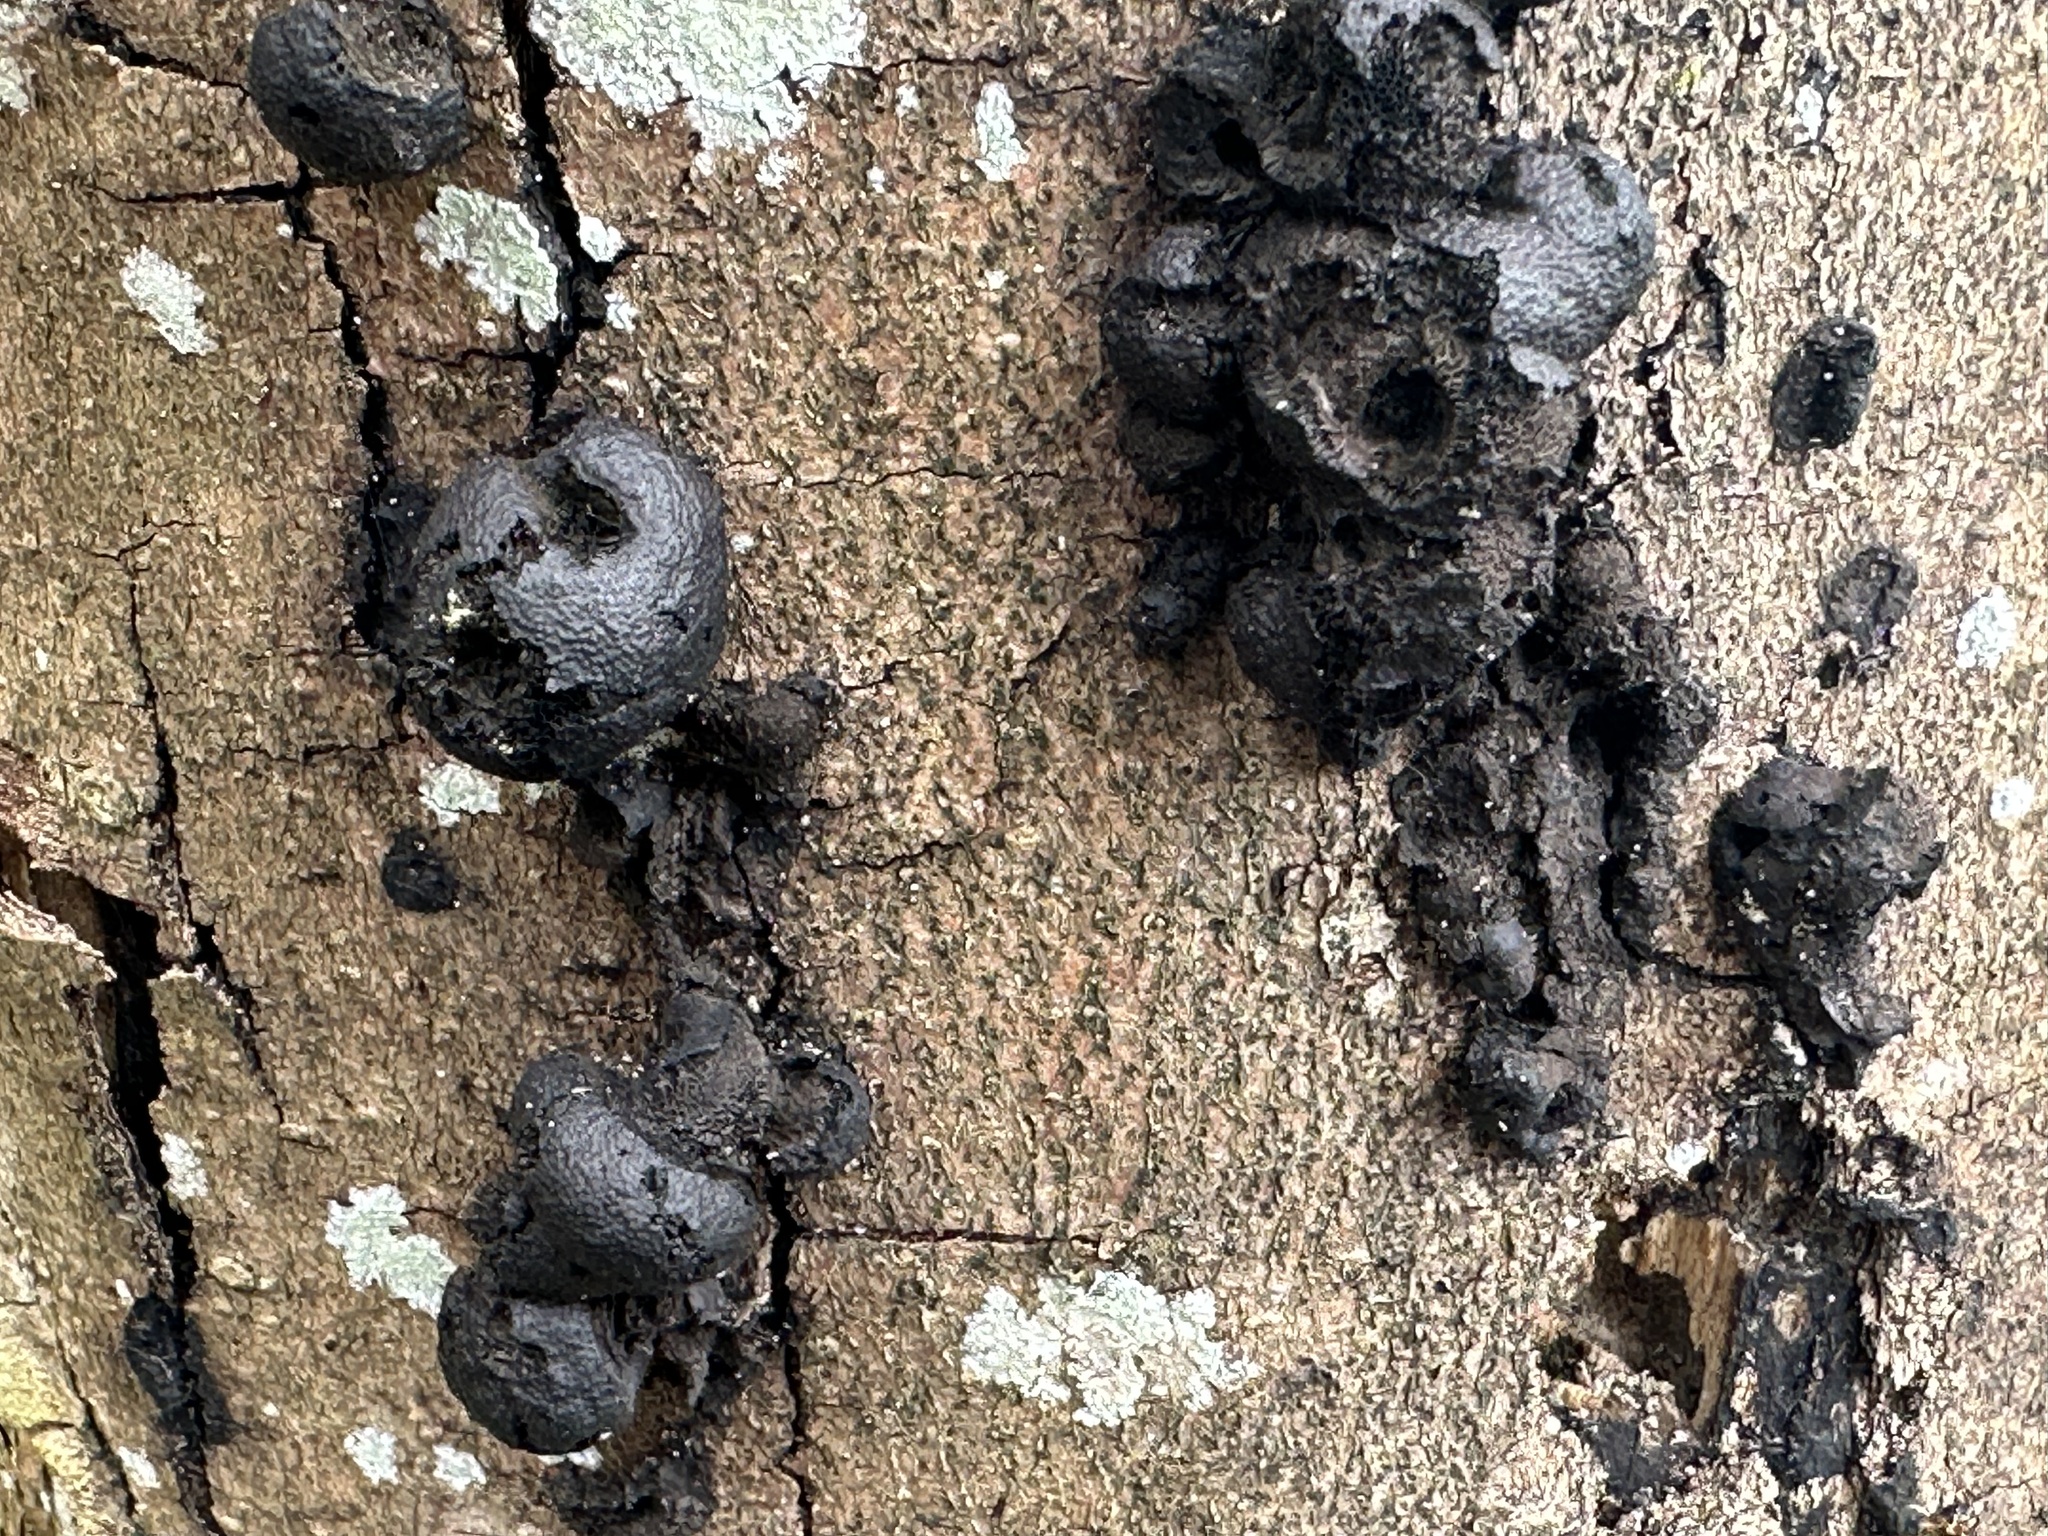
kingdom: Fungi
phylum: Ascomycota
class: Sordariomycetes
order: Xylariales
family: Hypoxylaceae
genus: Daldinia
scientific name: Daldinia childiae
